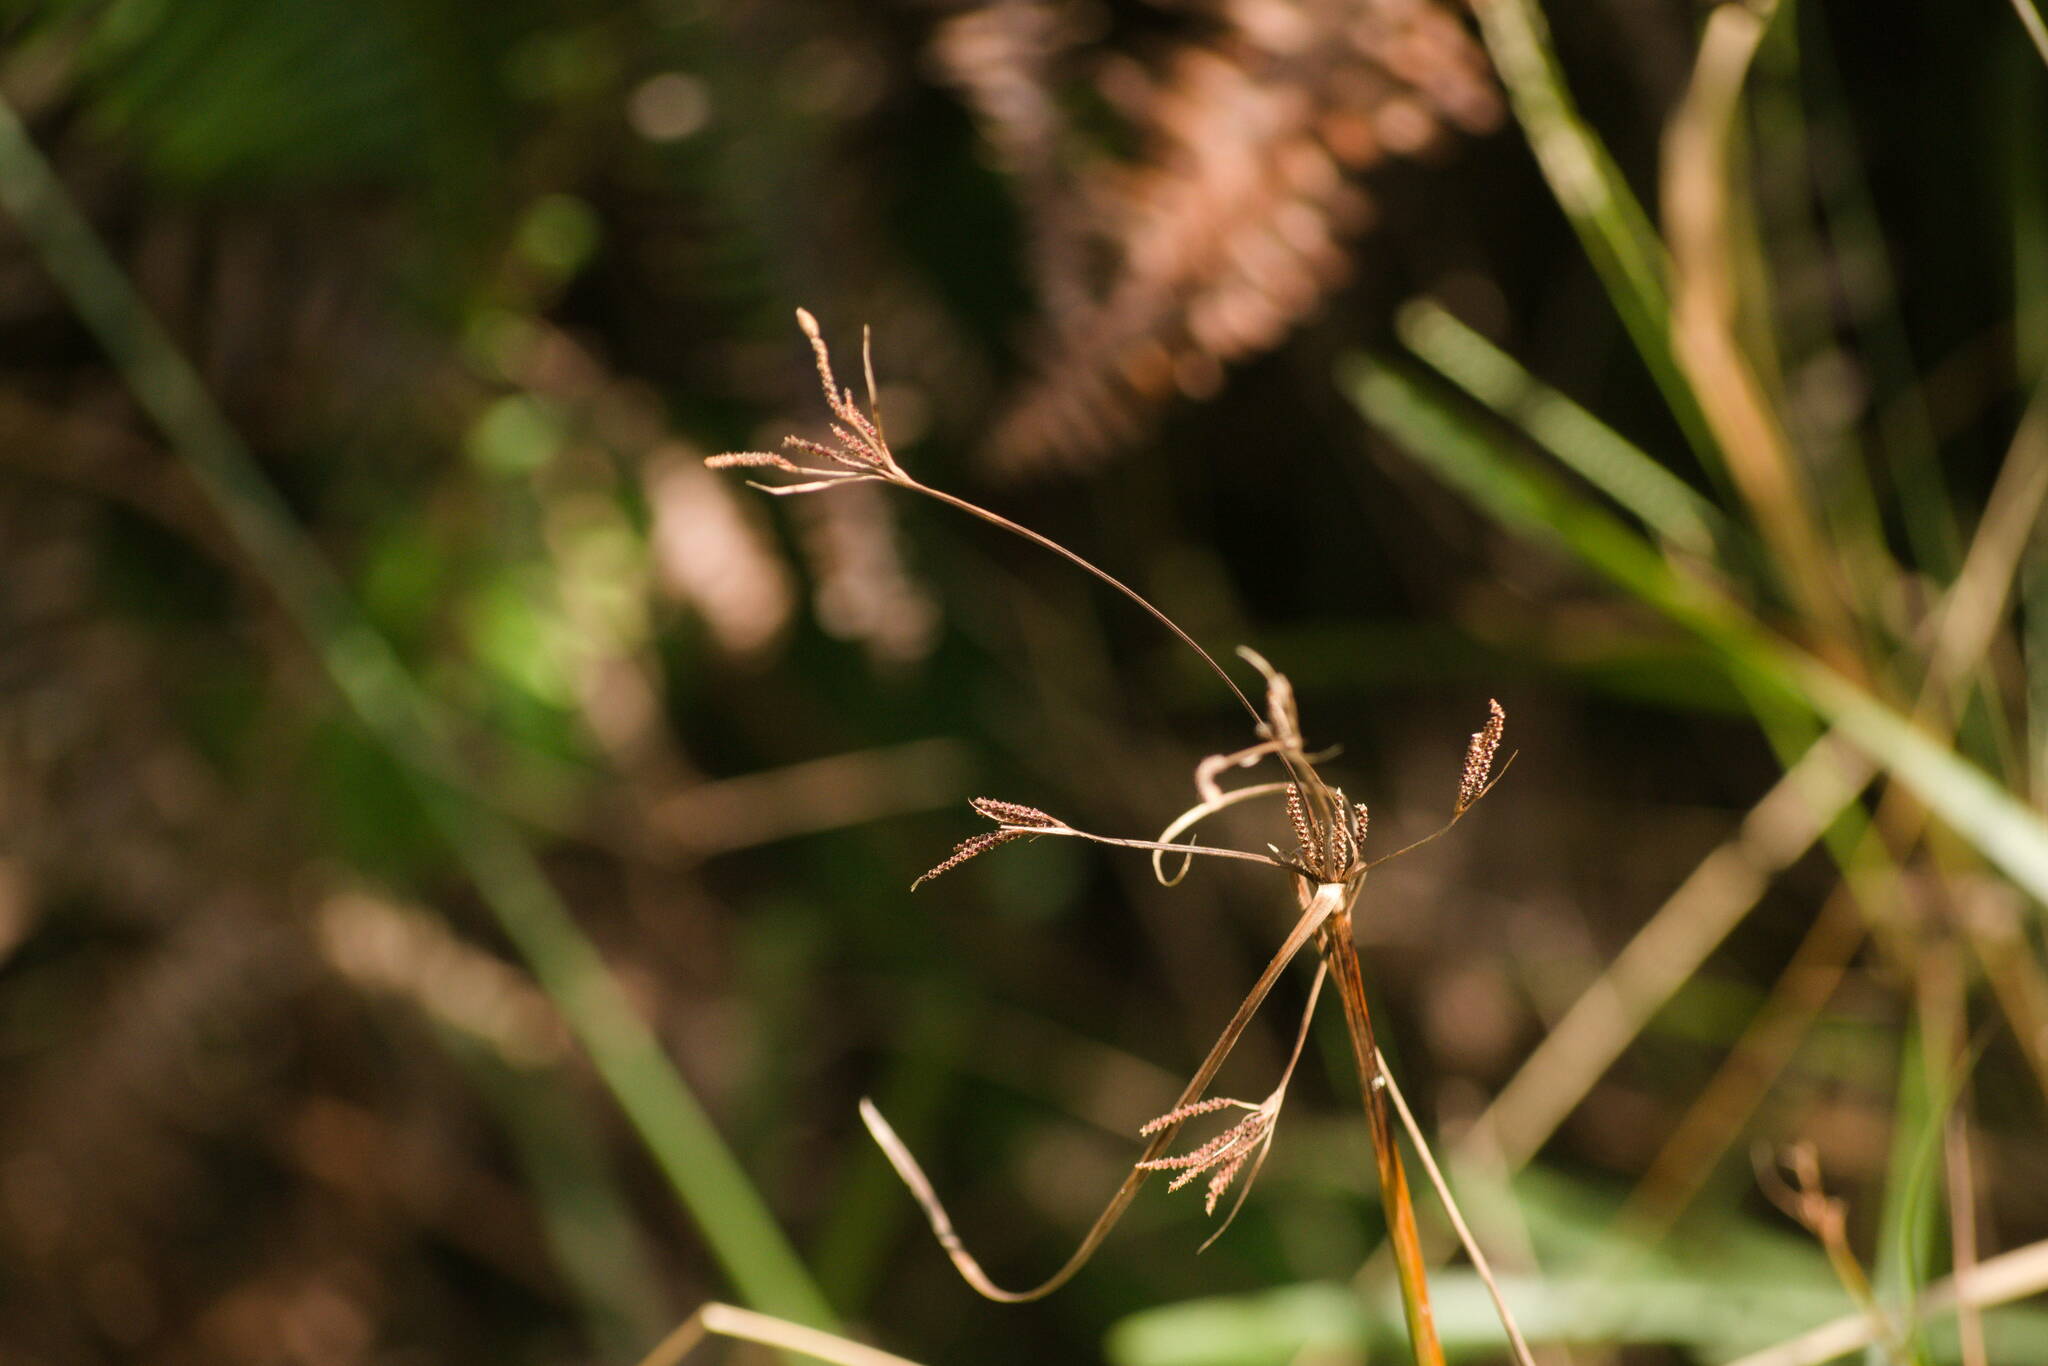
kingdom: Plantae
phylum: Tracheophyta
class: Liliopsida
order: Poales
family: Cyperaceae
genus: Fimbristylis
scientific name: Fimbristylis dichotoma
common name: Forked fimbry
